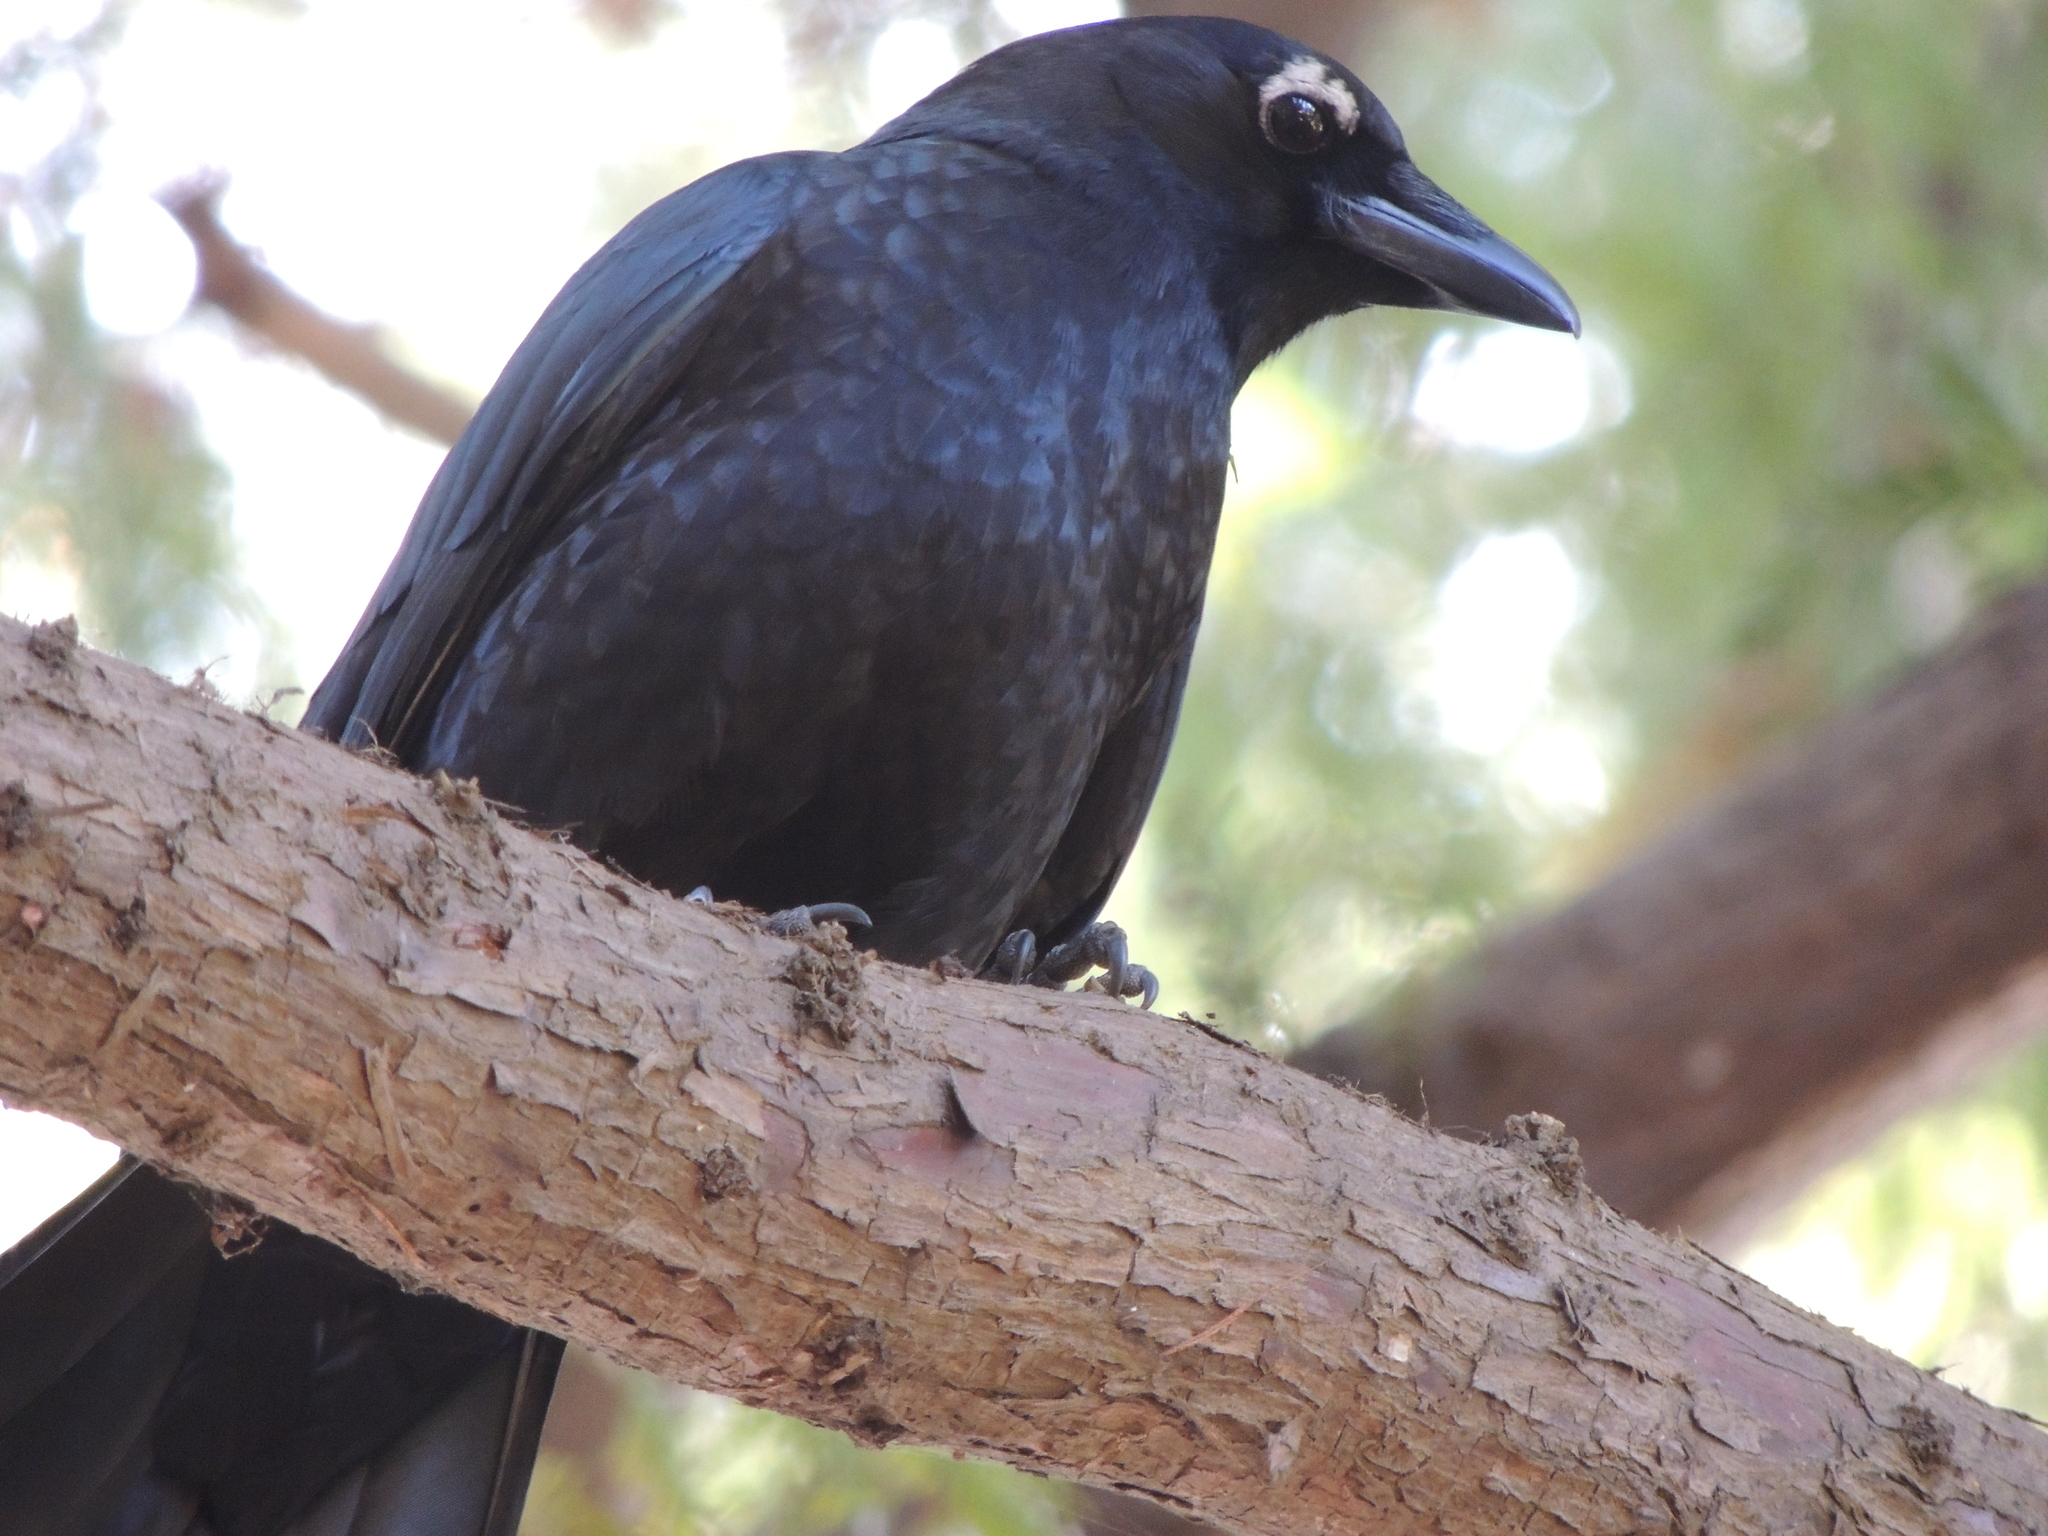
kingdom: Animalia
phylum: Chordata
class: Aves
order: Passeriformes
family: Corvidae
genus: Corvus
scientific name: Corvus brachyrhynchos
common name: American crow
